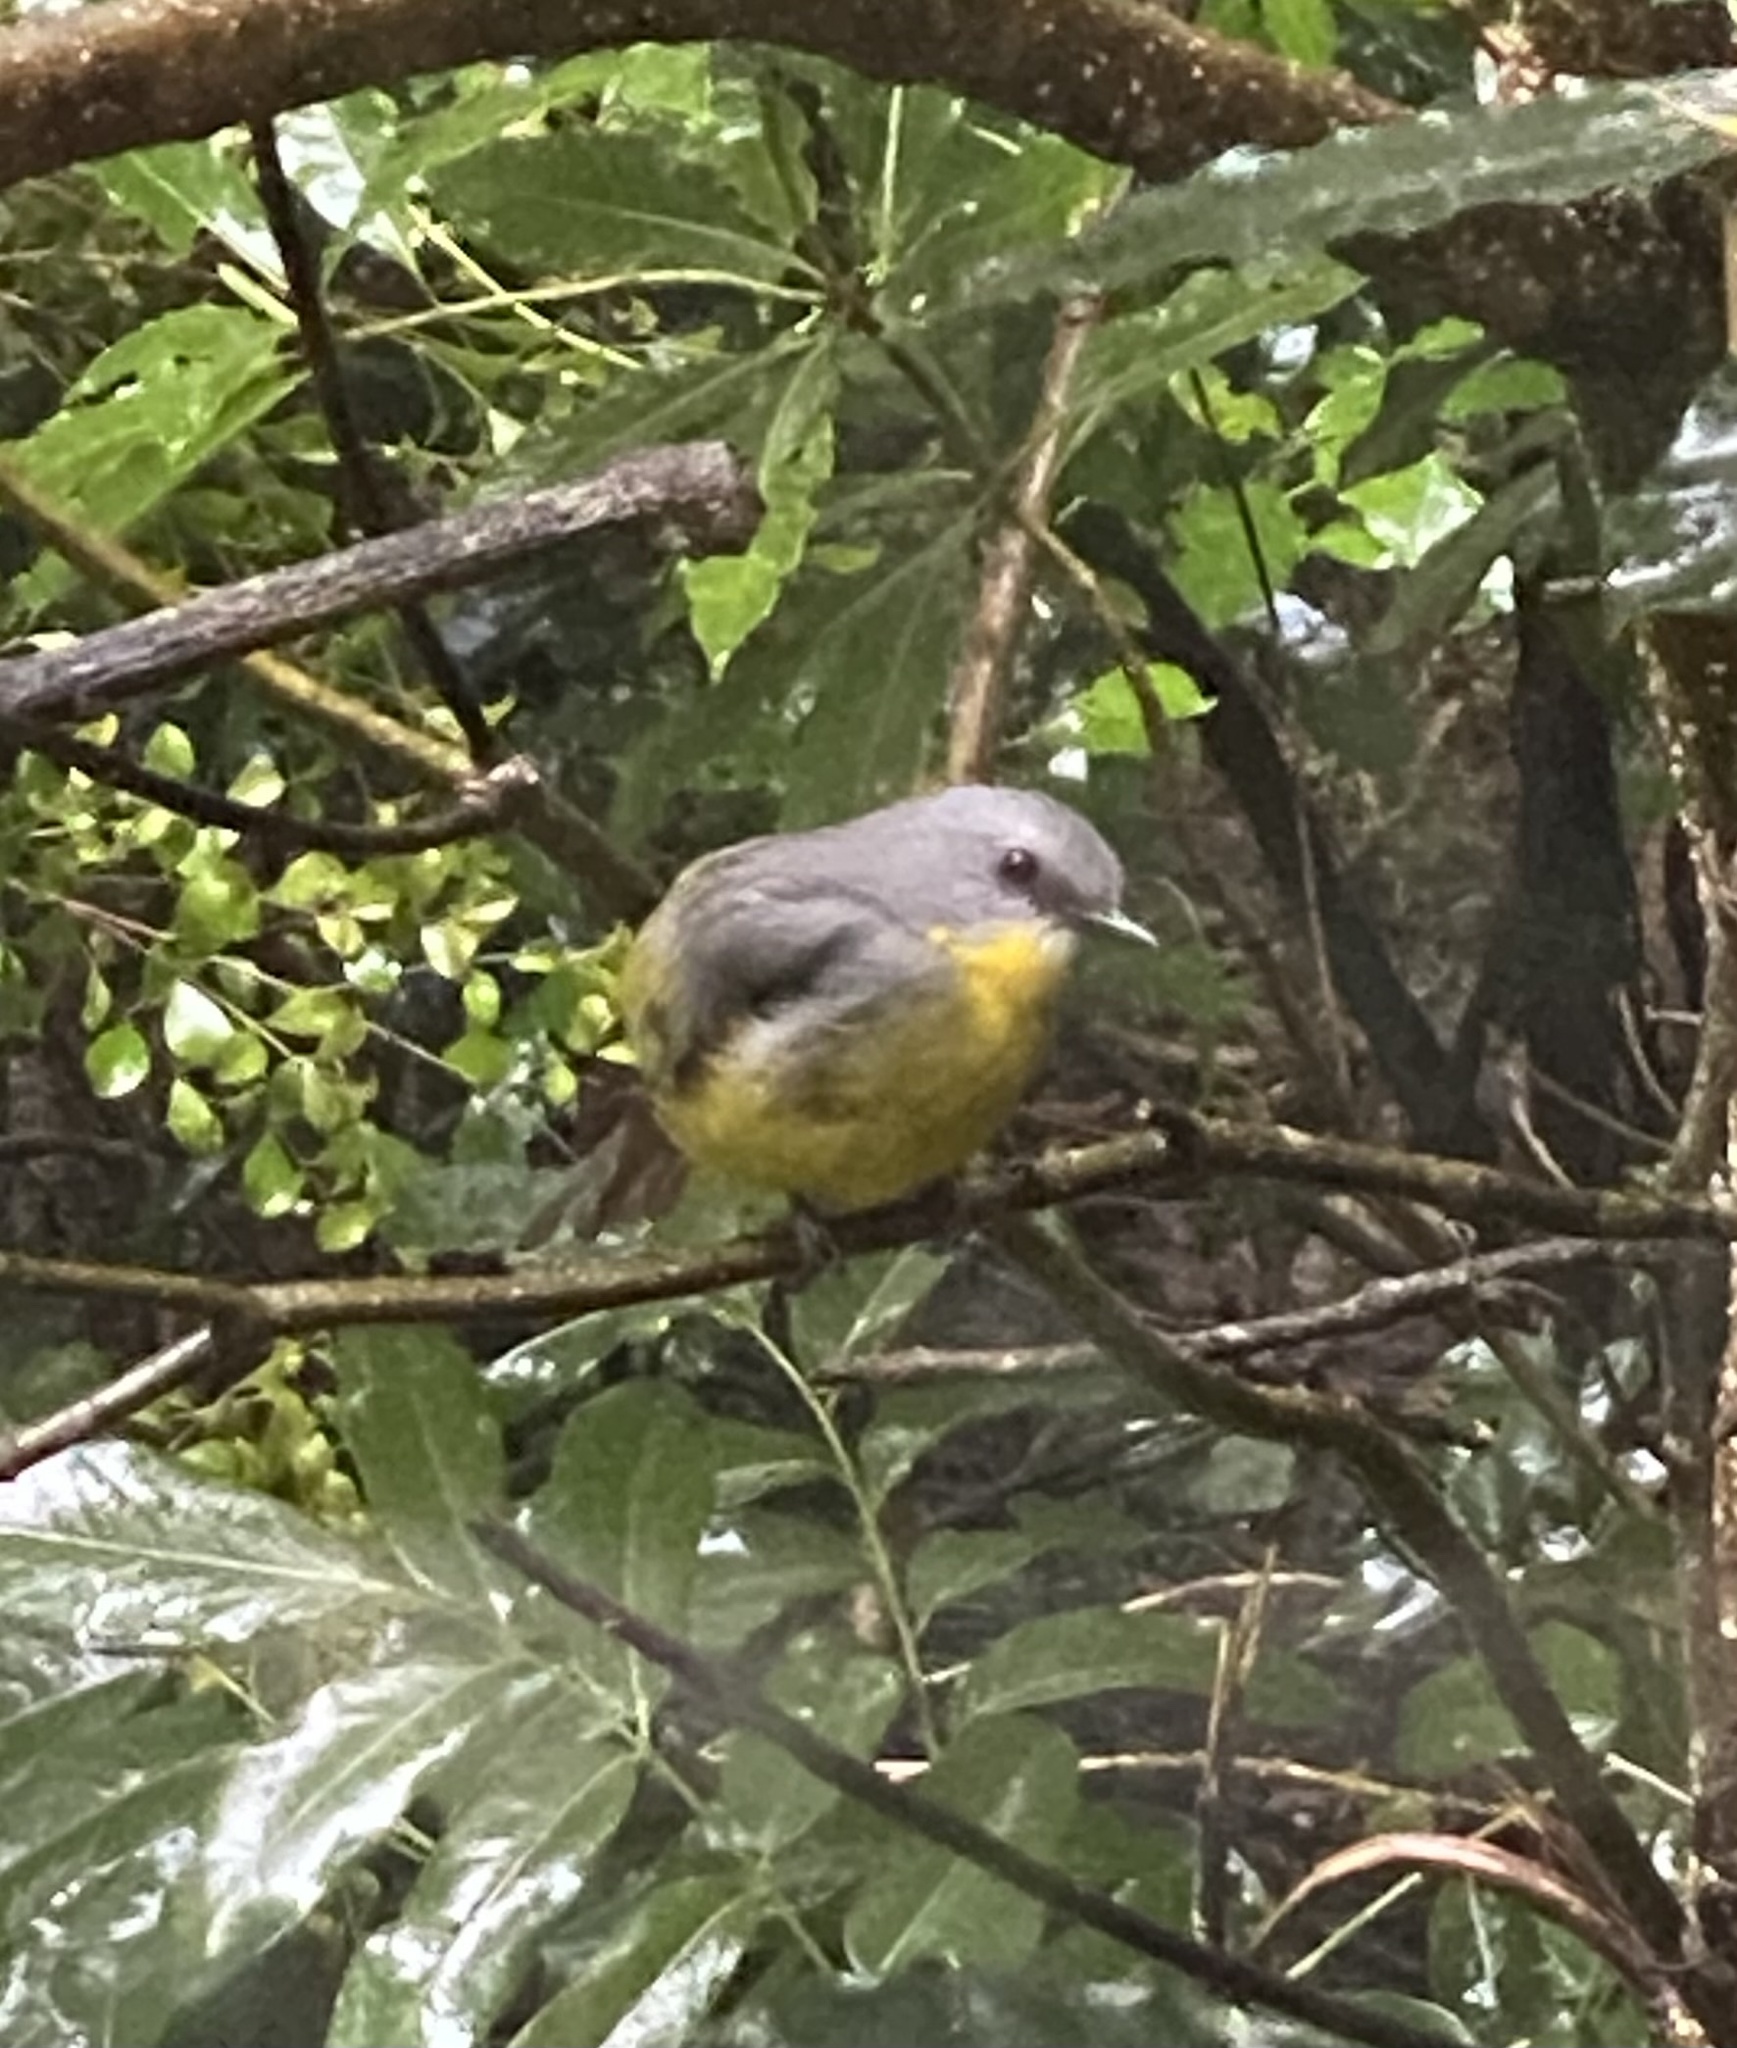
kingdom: Animalia
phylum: Chordata
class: Aves
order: Passeriformes
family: Petroicidae
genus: Eopsaltria
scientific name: Eopsaltria australis
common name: Eastern yellow robin
